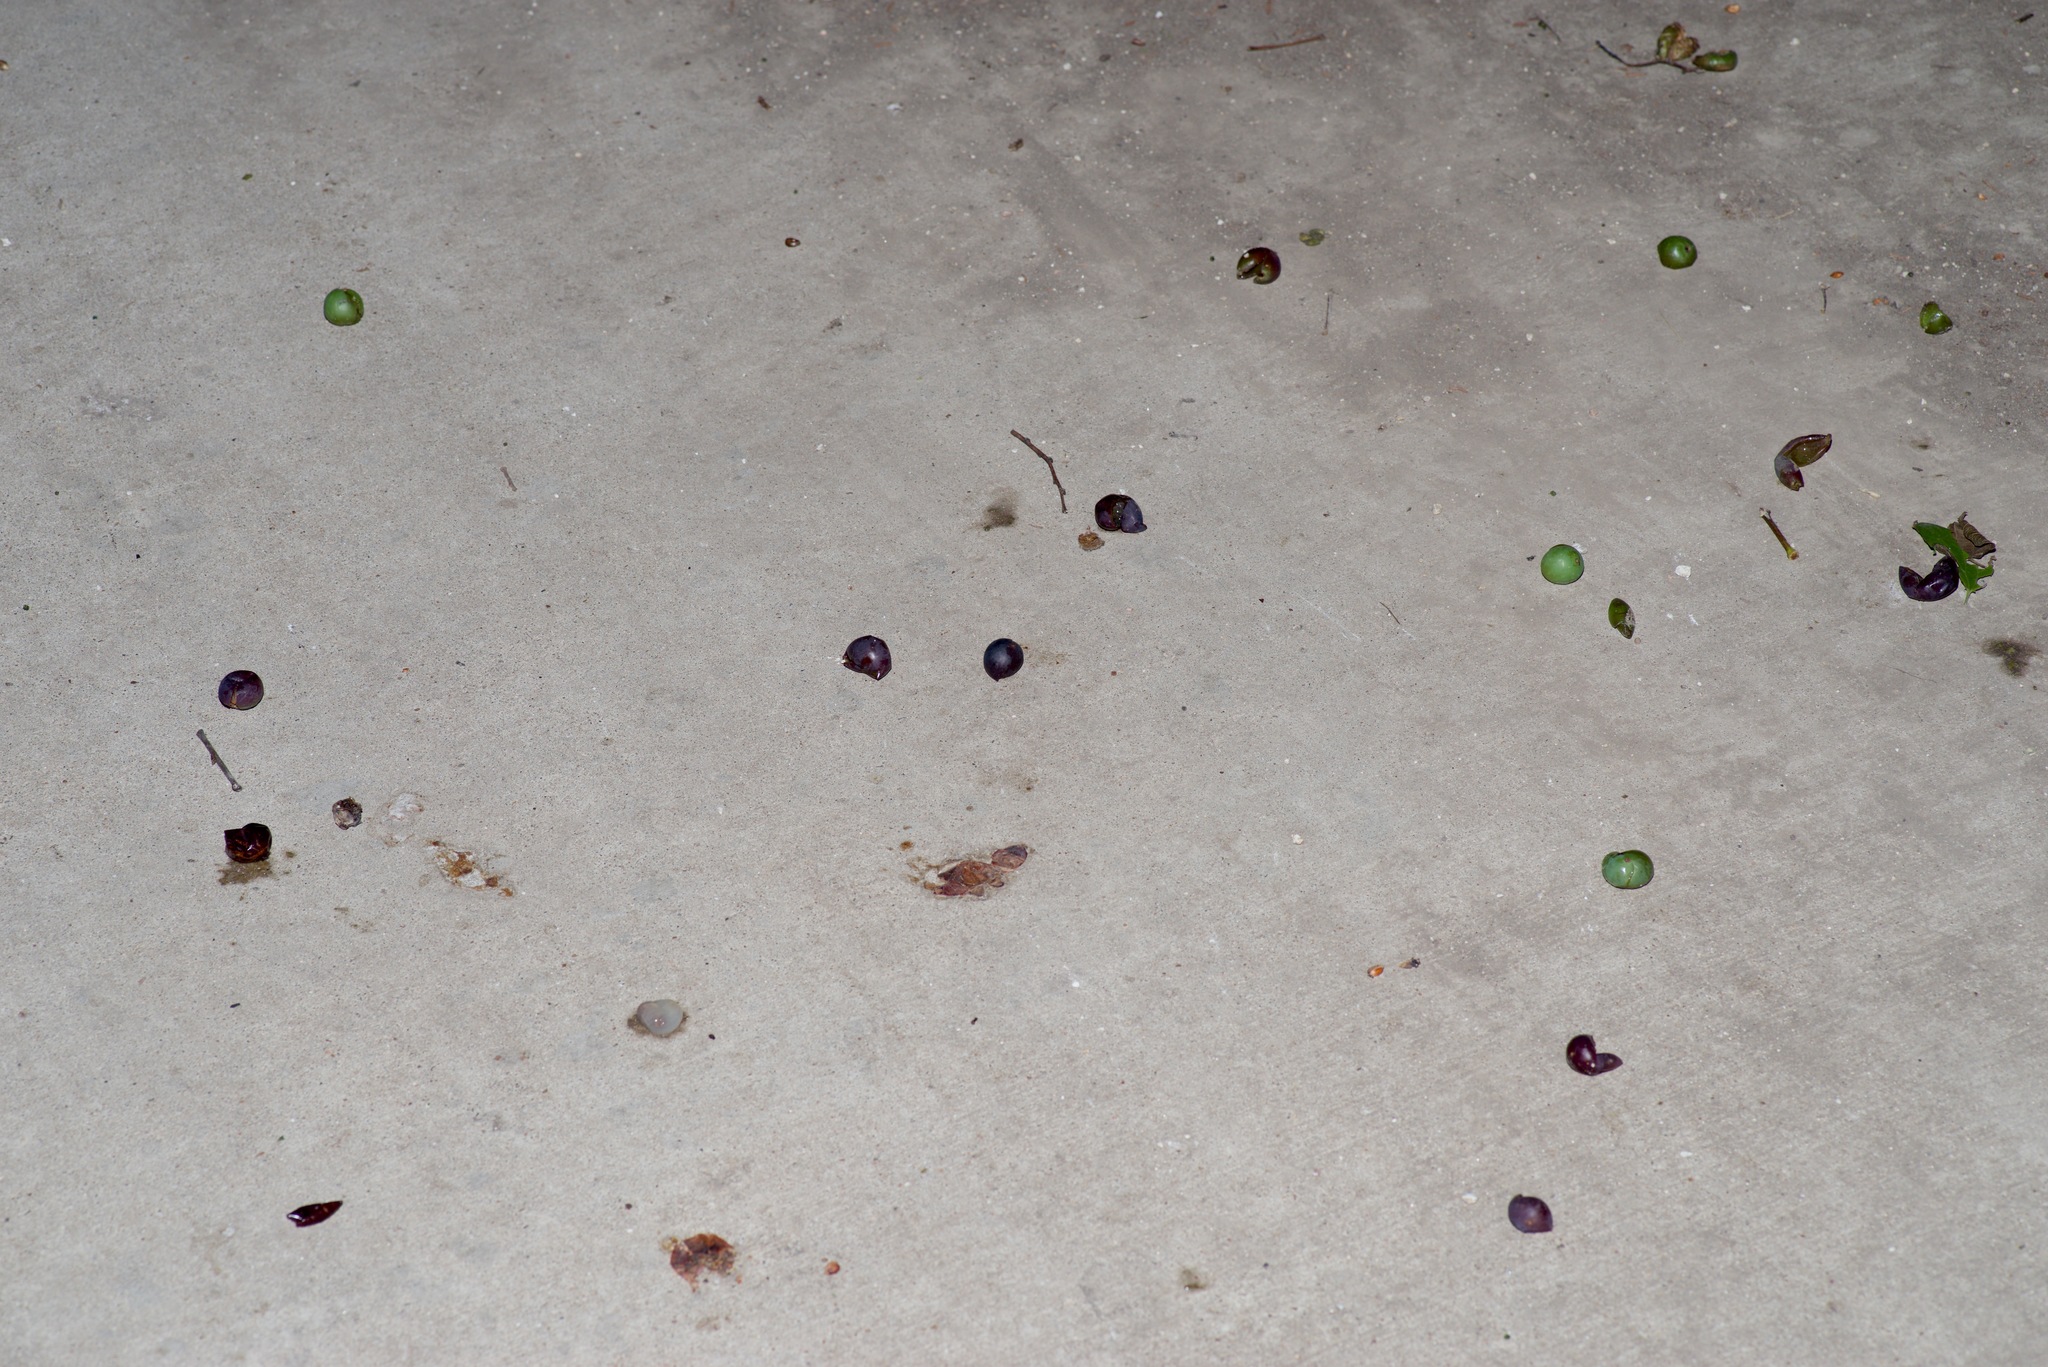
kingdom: Animalia
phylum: Chordata
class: Mammalia
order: Didelphimorphia
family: Didelphidae
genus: Didelphis
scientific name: Didelphis virginiana
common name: Virginia opossum
